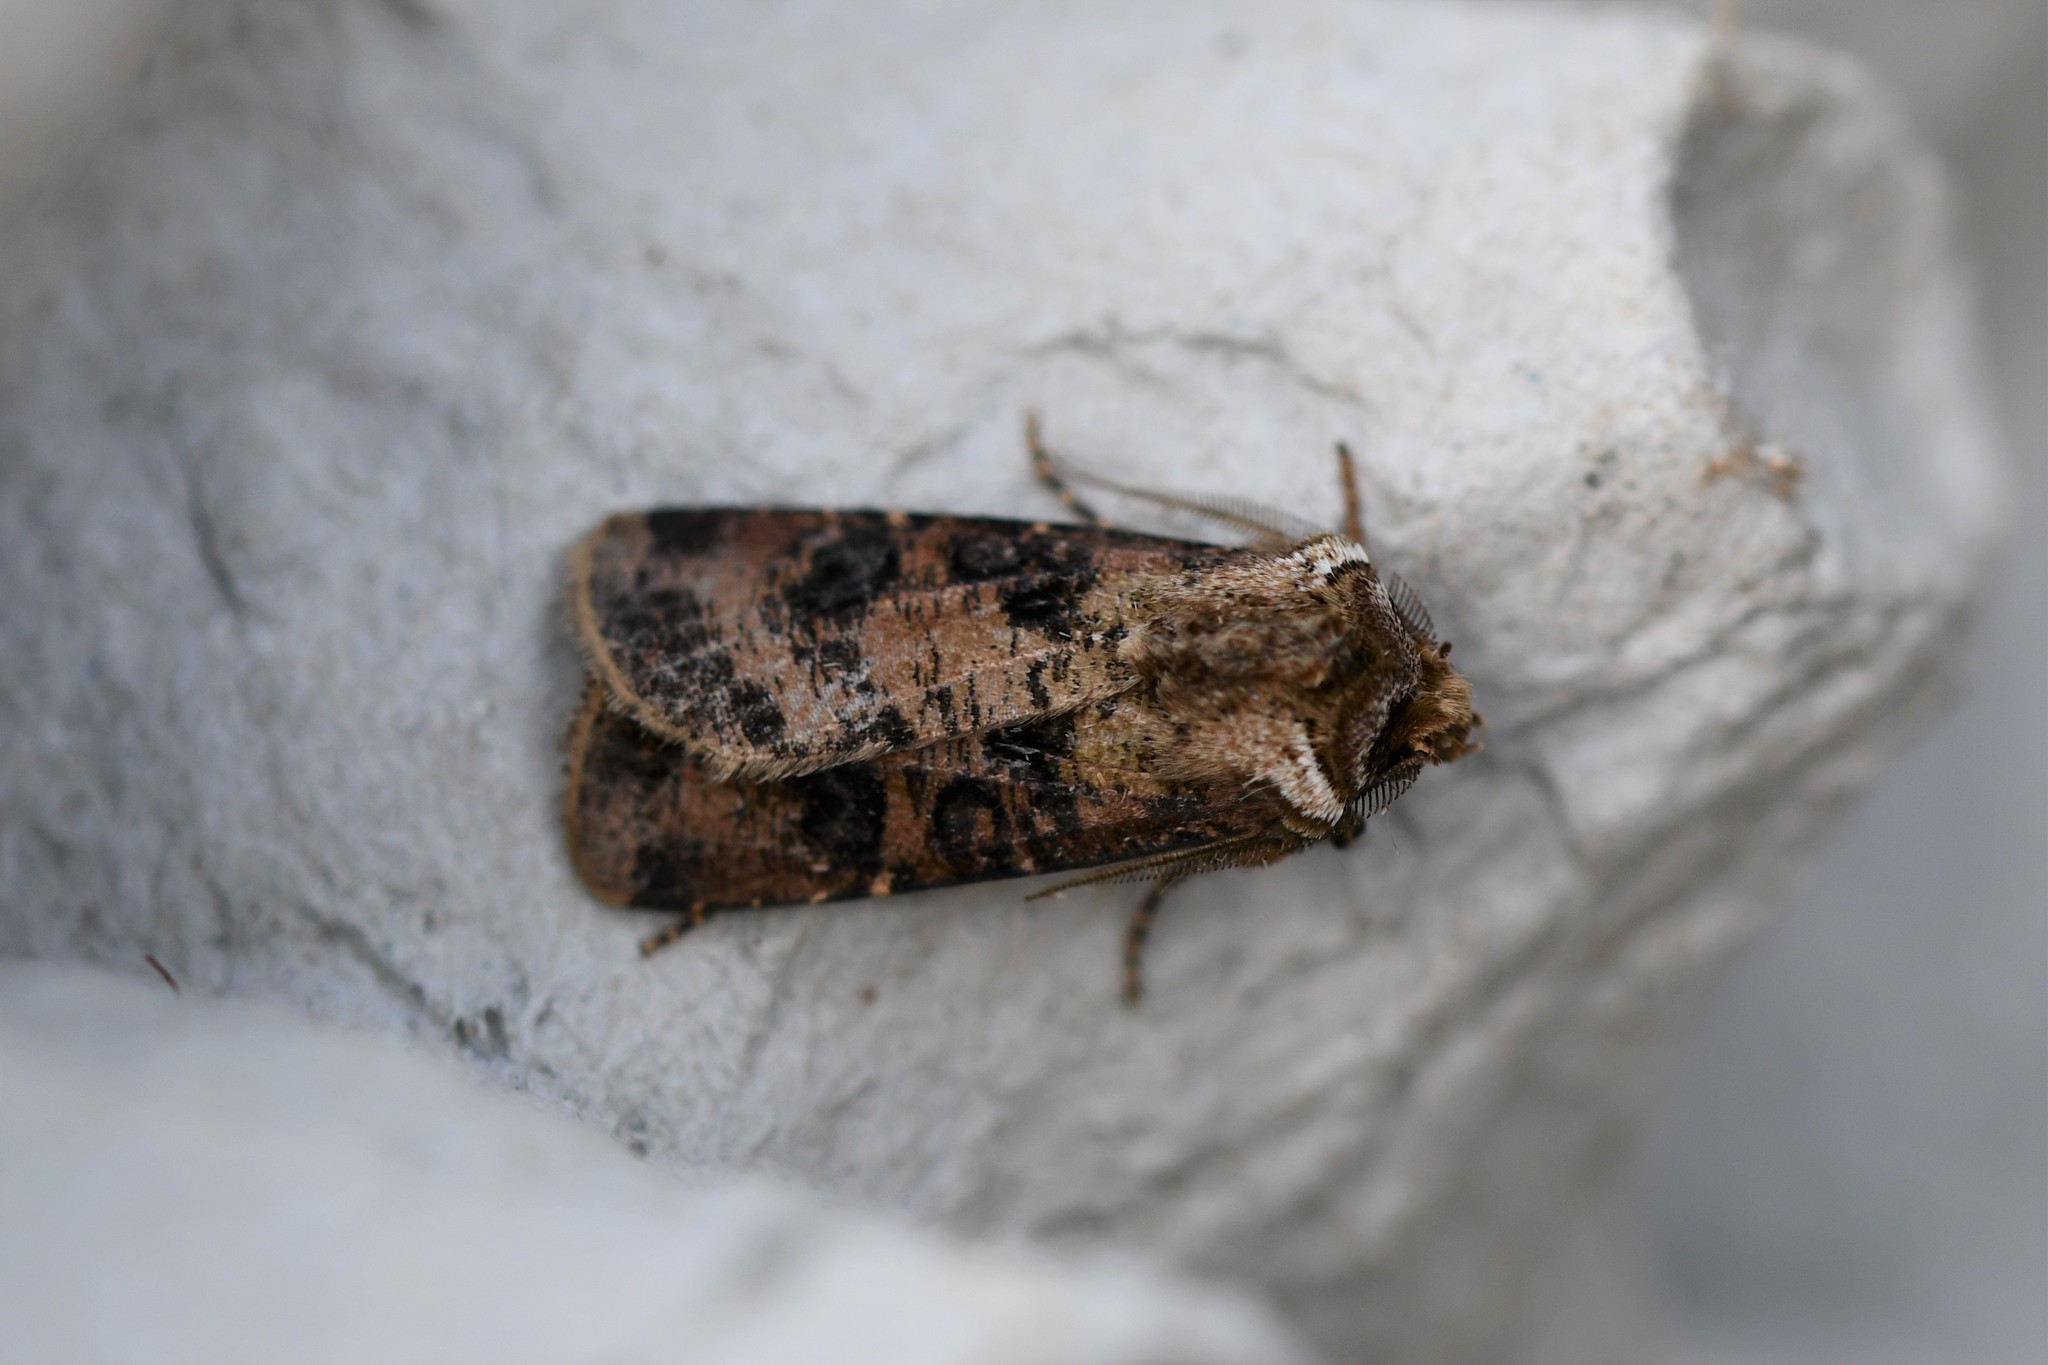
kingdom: Animalia
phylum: Arthropoda
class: Insecta
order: Lepidoptera
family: Noctuidae
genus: Agrotis
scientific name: Agrotis clavis
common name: Heart and club
